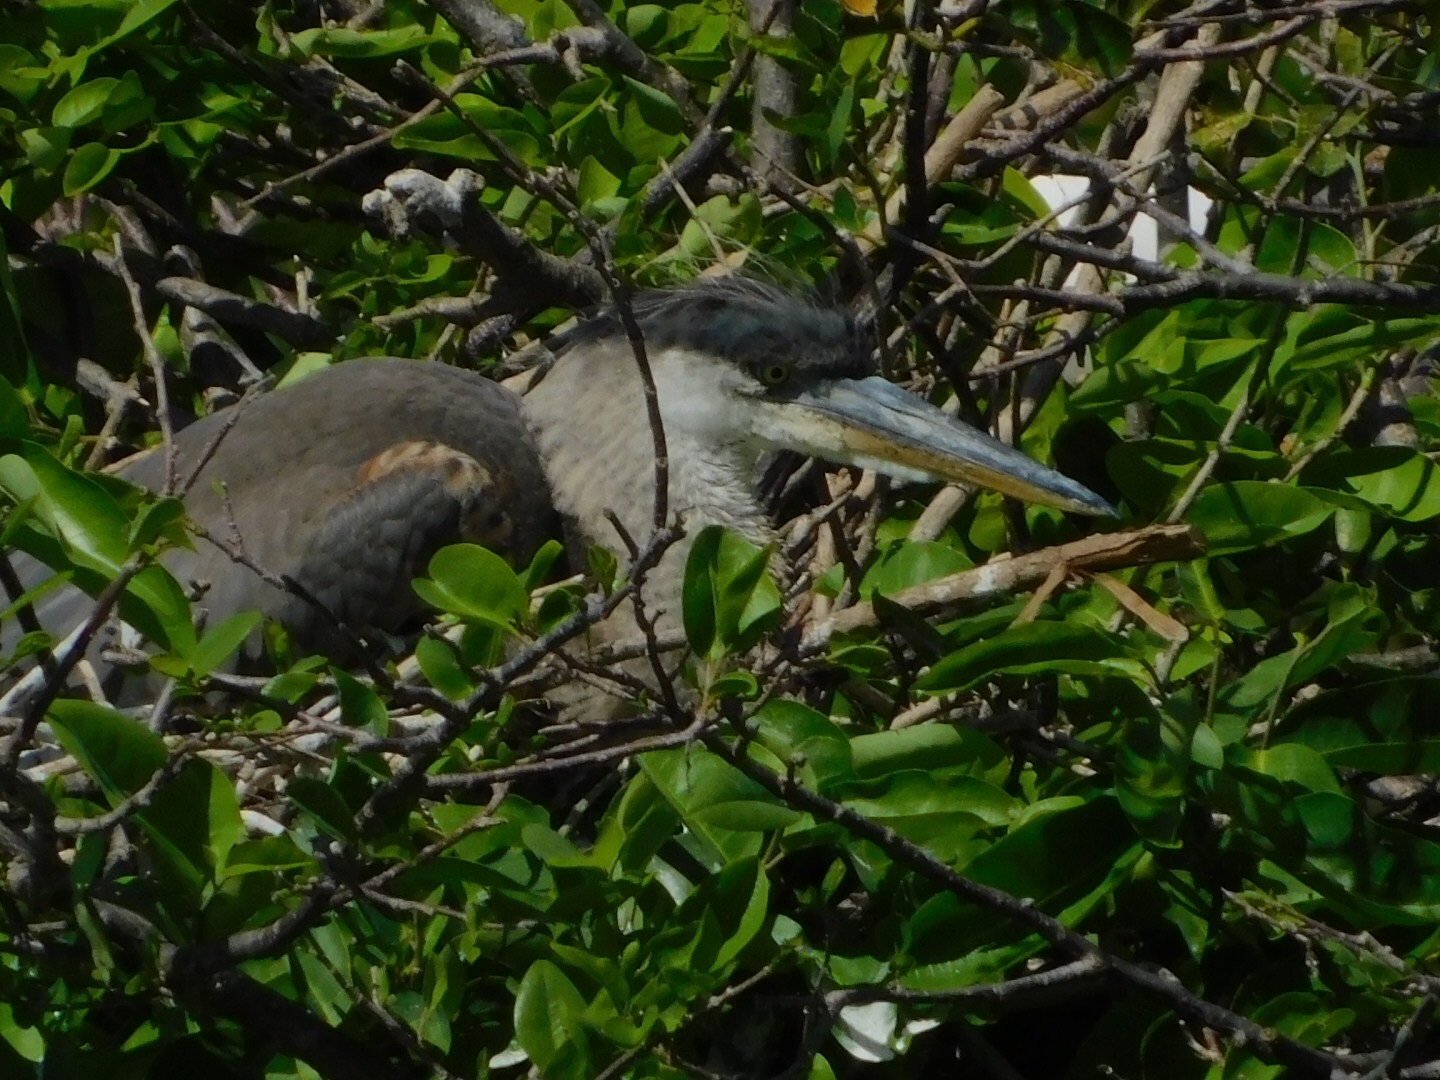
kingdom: Animalia
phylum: Chordata
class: Aves
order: Pelecaniformes
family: Ardeidae
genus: Ardea
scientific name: Ardea herodias
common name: Great blue heron
